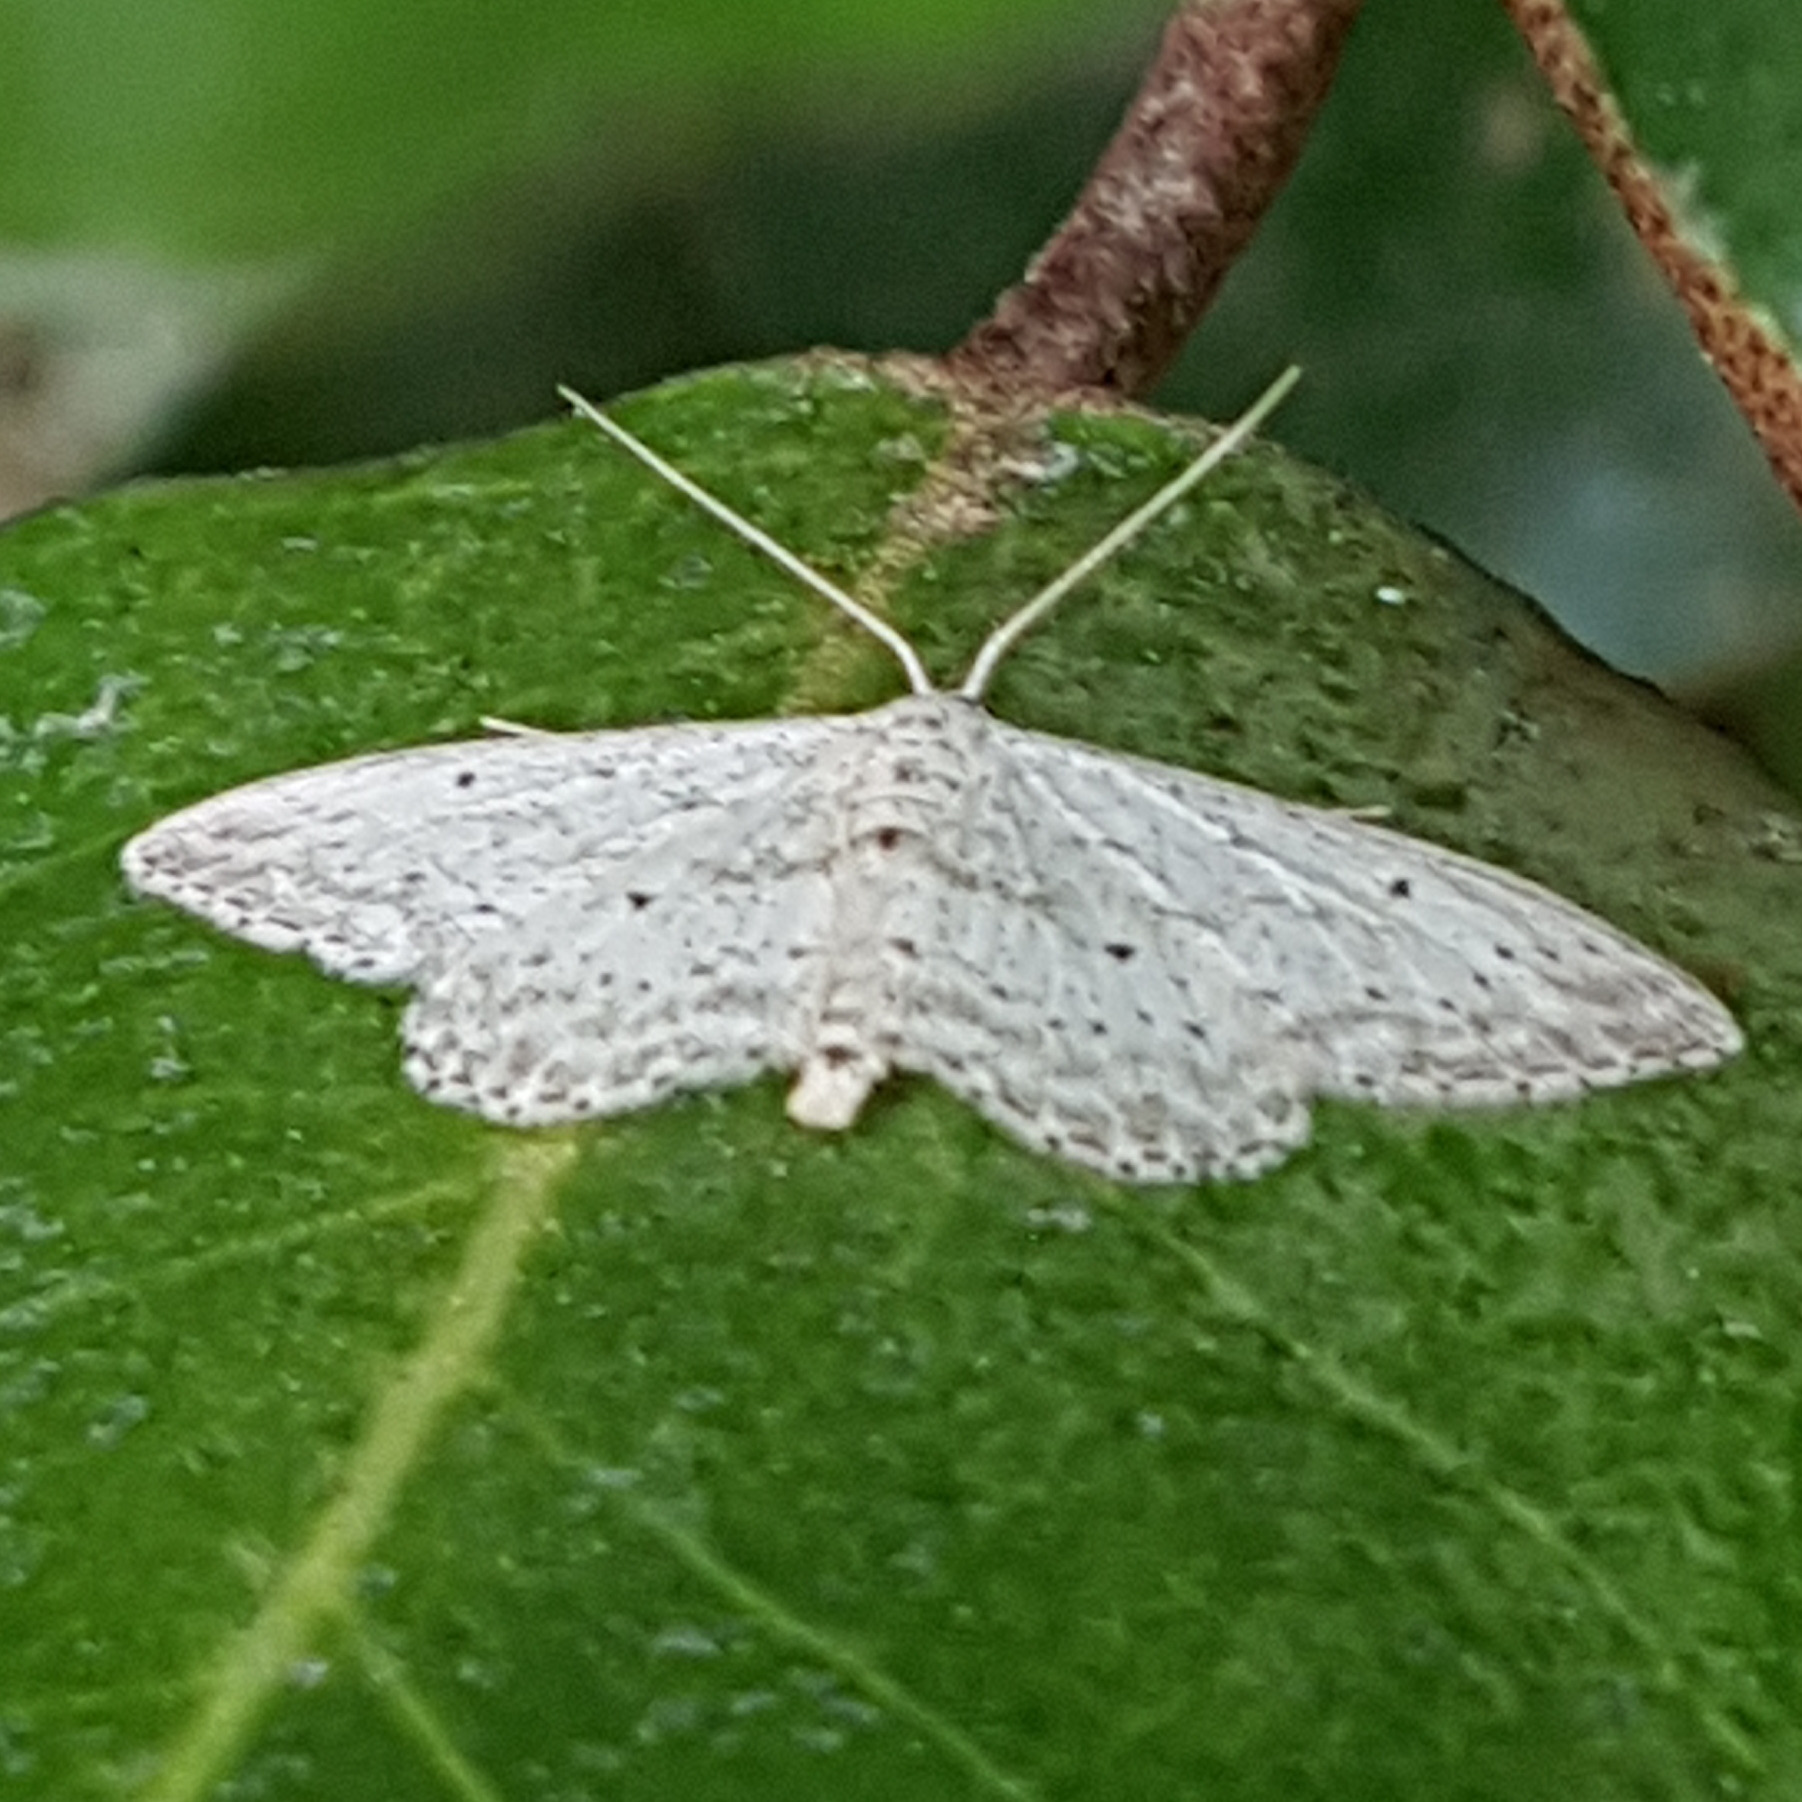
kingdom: Animalia
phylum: Arthropoda
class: Insecta
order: Lepidoptera
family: Geometridae
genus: Idaea
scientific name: Idaea seriata
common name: Small dusty wave
